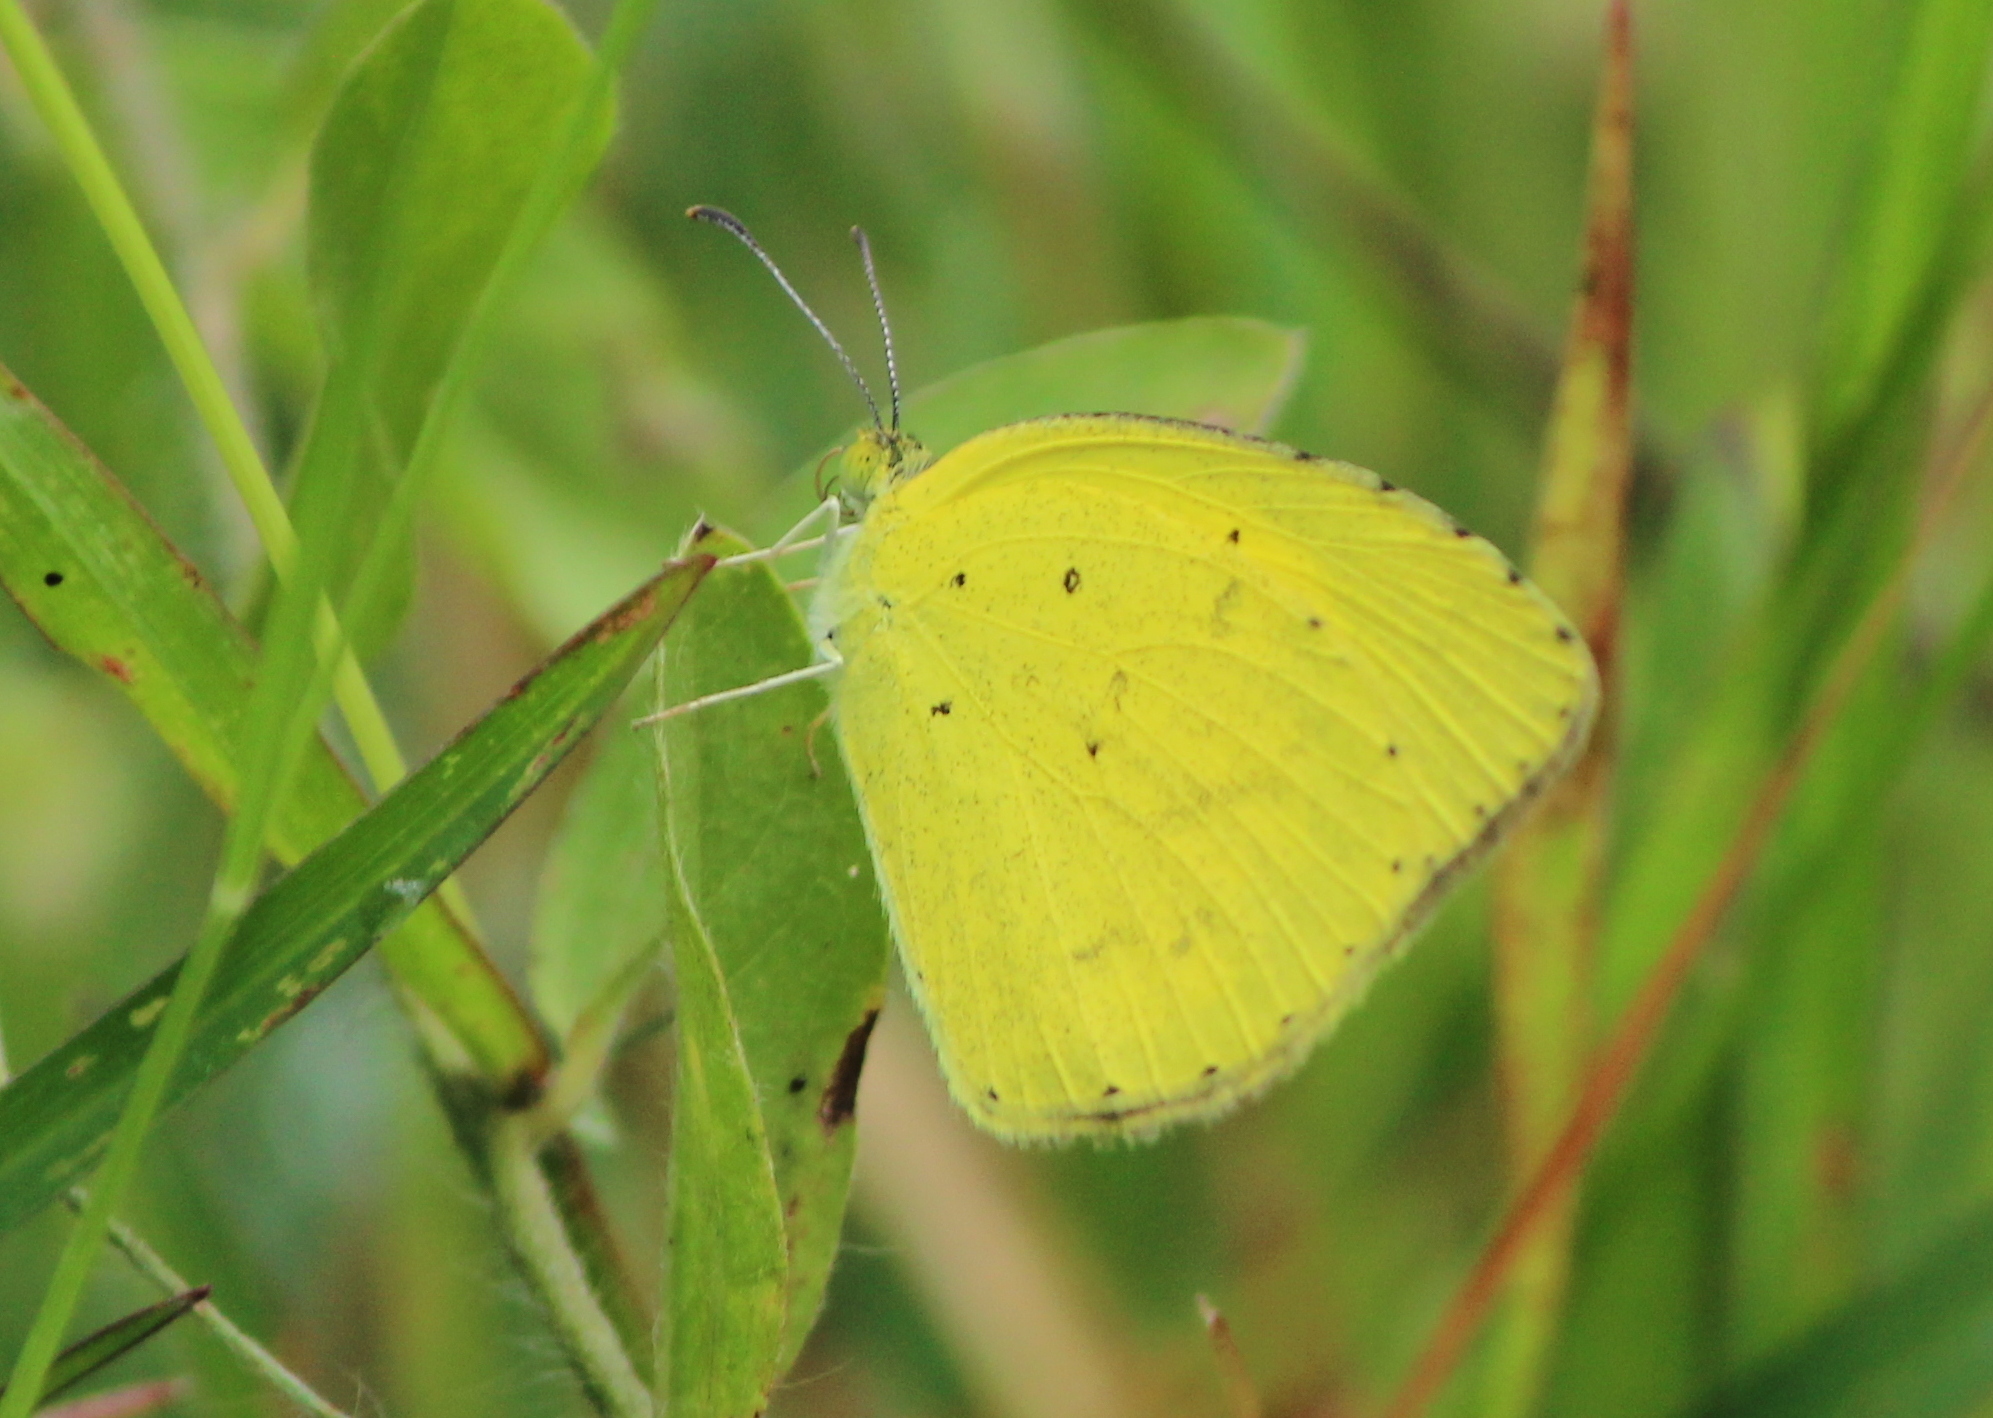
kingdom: Animalia
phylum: Arthropoda
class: Insecta
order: Lepidoptera
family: Pieridae
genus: Eurema
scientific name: Eurema brigitta
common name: Small grass yellow
